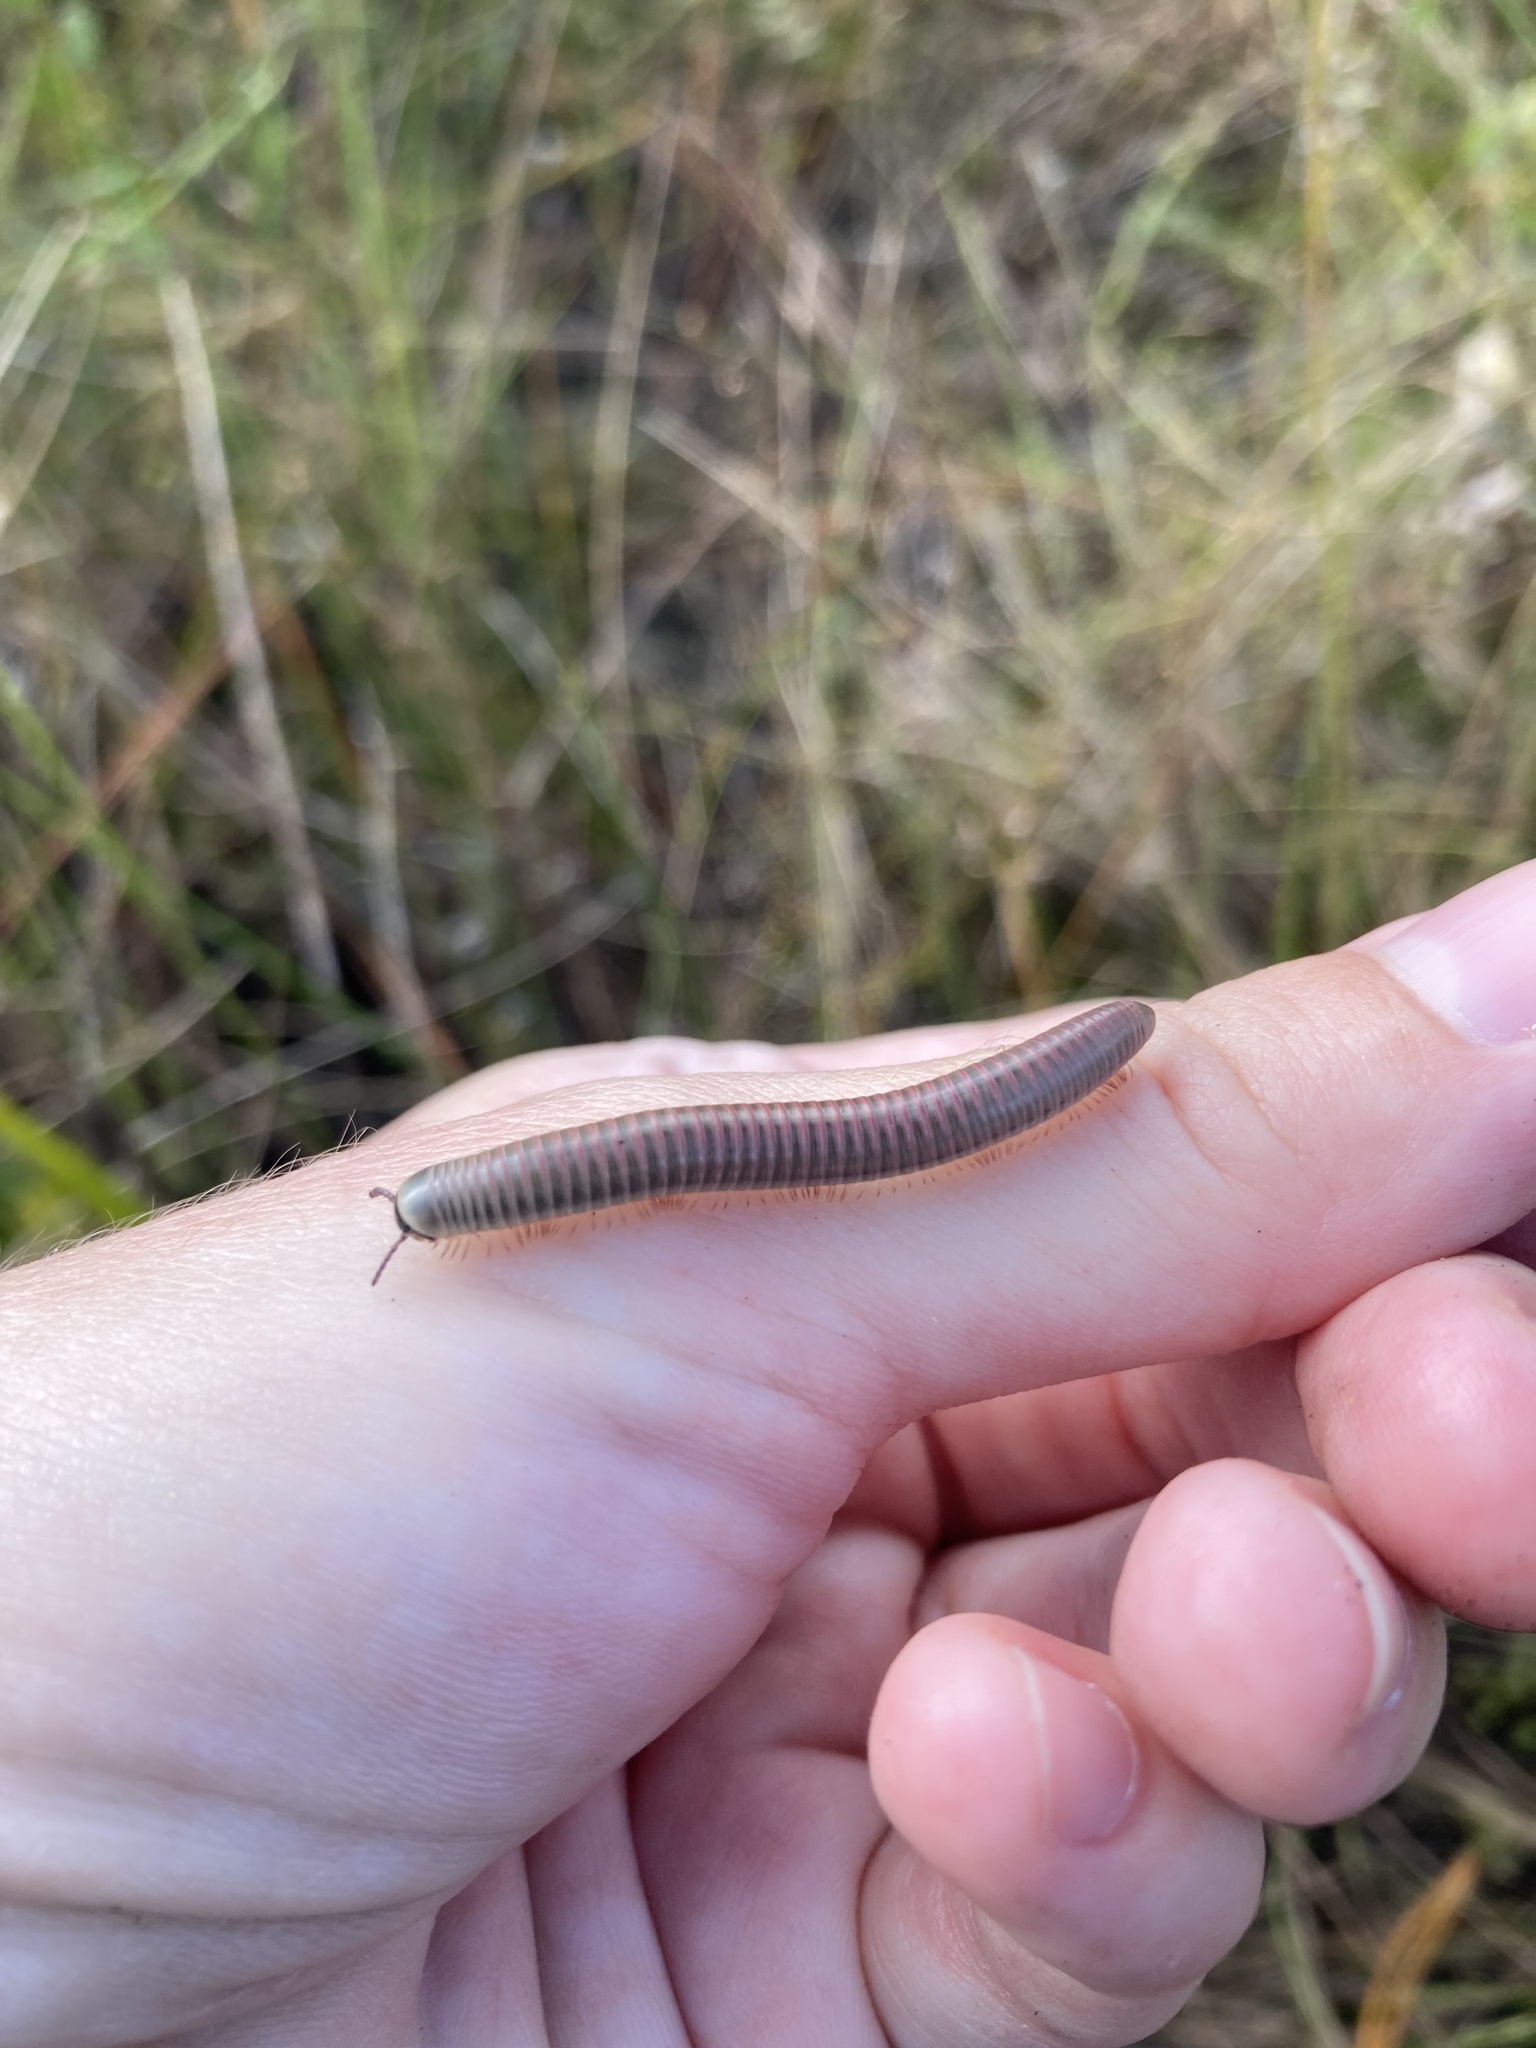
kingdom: Animalia
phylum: Arthropoda
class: Diplopoda
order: Spirobolida
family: Spirobolidae
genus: Chicobolus
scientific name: Chicobolus spinigerus
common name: Florida ivory millipede
